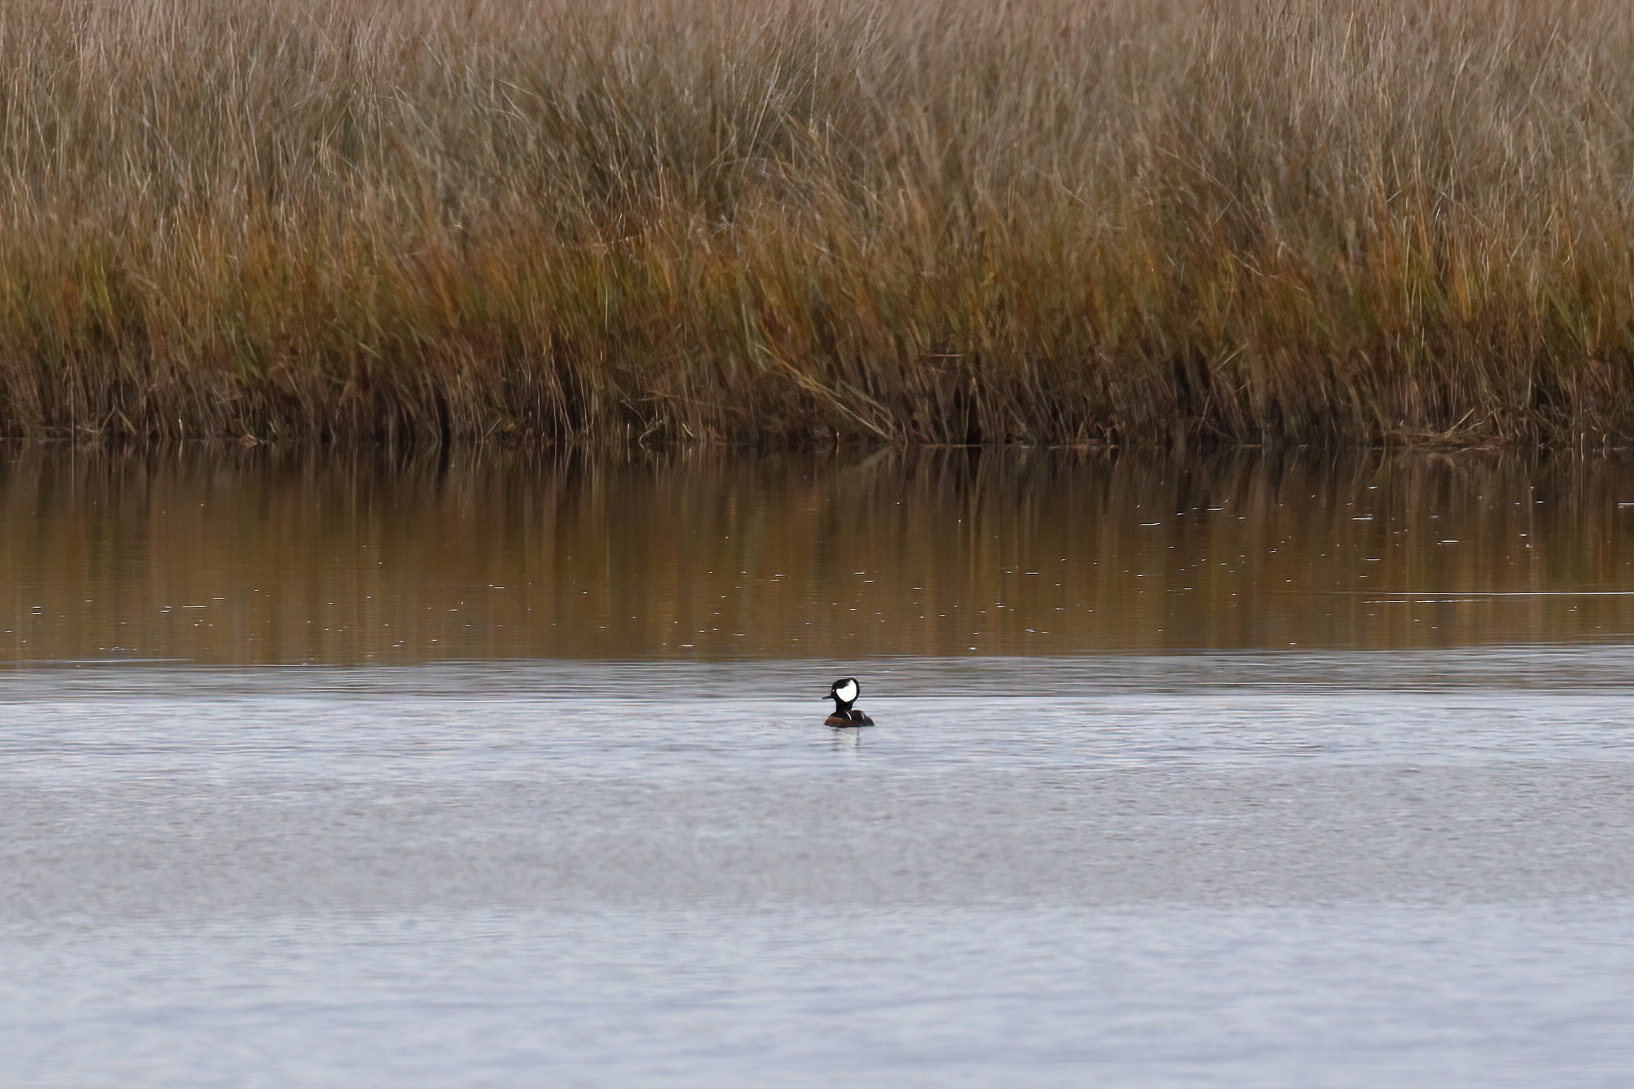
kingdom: Animalia
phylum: Chordata
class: Aves
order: Anseriformes
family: Anatidae
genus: Lophodytes
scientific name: Lophodytes cucullatus
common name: Hooded merganser
